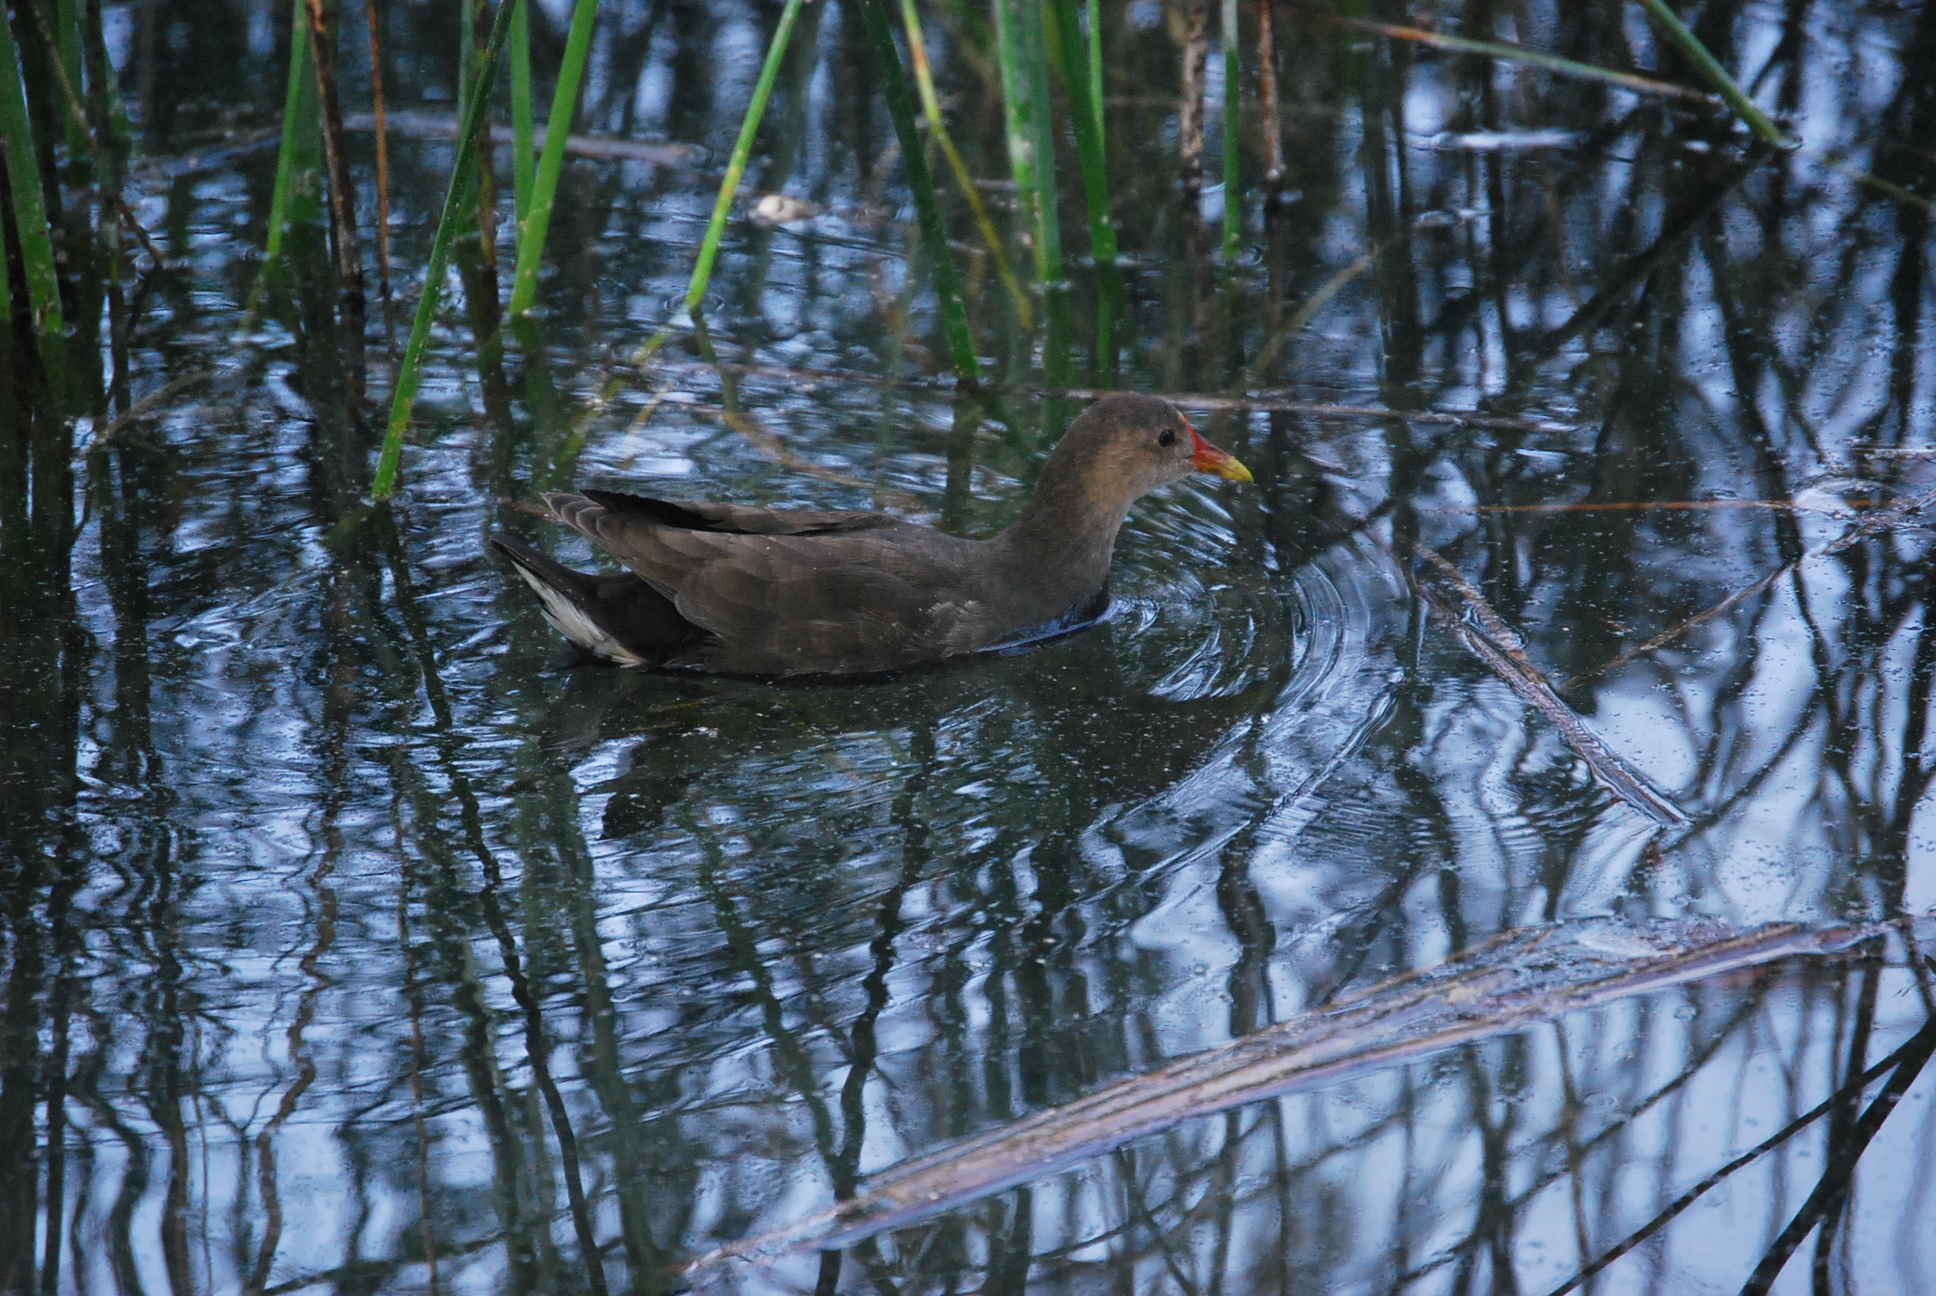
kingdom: Animalia
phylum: Chordata
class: Aves
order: Gruiformes
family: Rallidae
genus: Gallinula
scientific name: Gallinula chloropus
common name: Common moorhen
